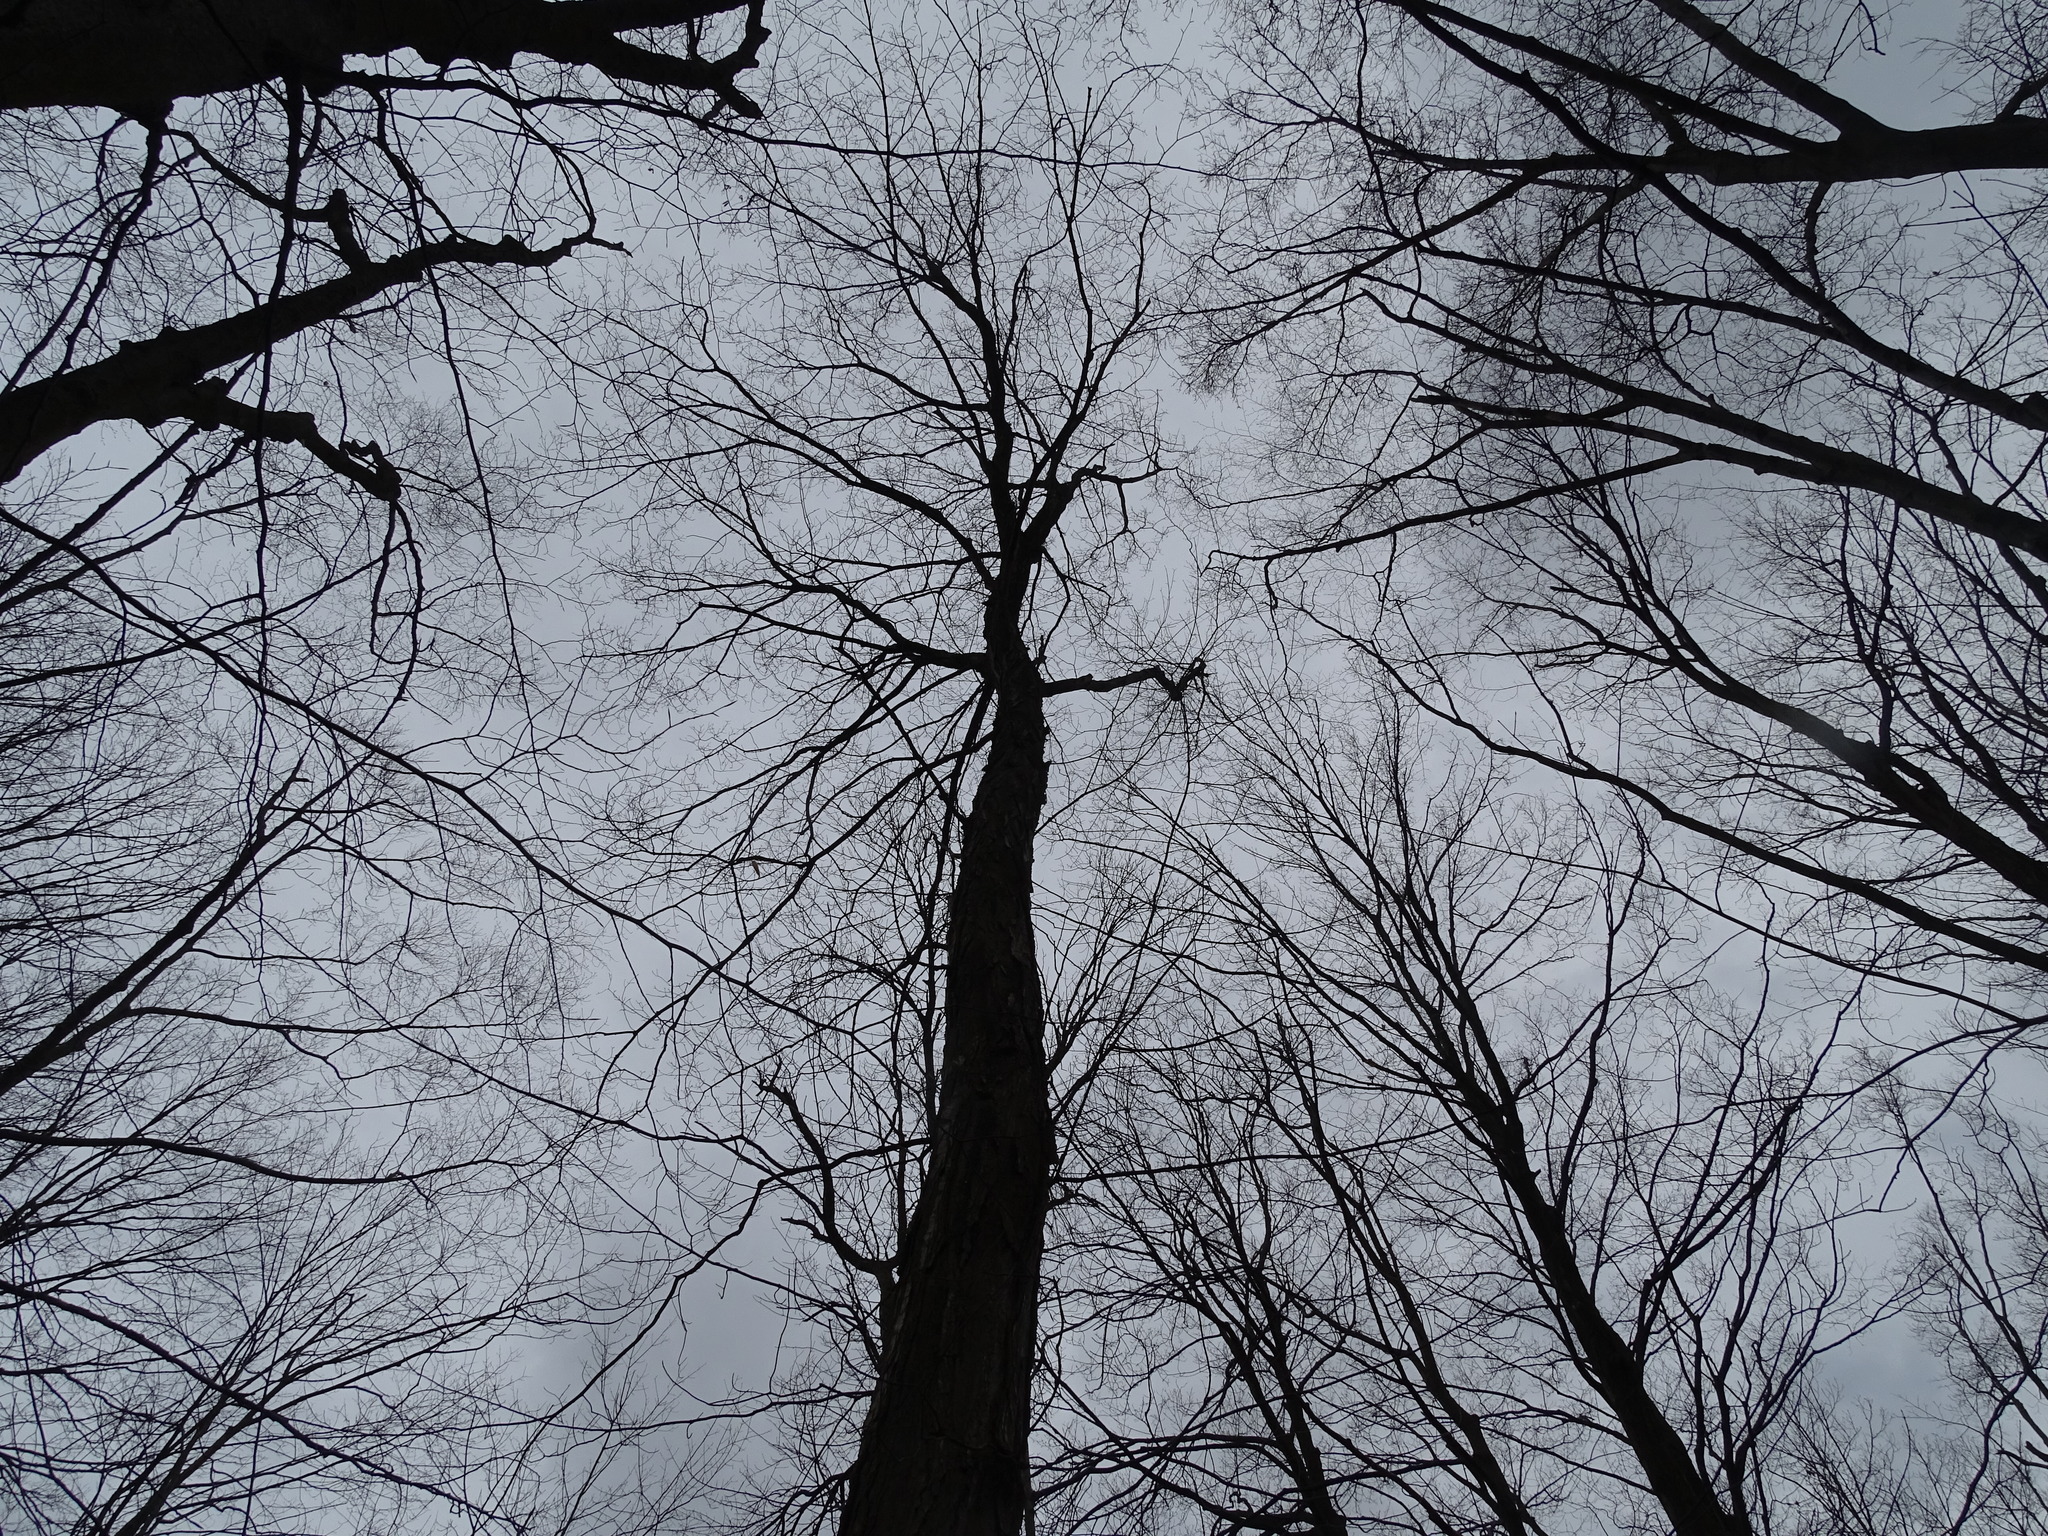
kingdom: Plantae
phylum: Tracheophyta
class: Magnoliopsida
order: Sapindales
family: Sapindaceae
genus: Acer
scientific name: Acer saccharum
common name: Sugar maple
